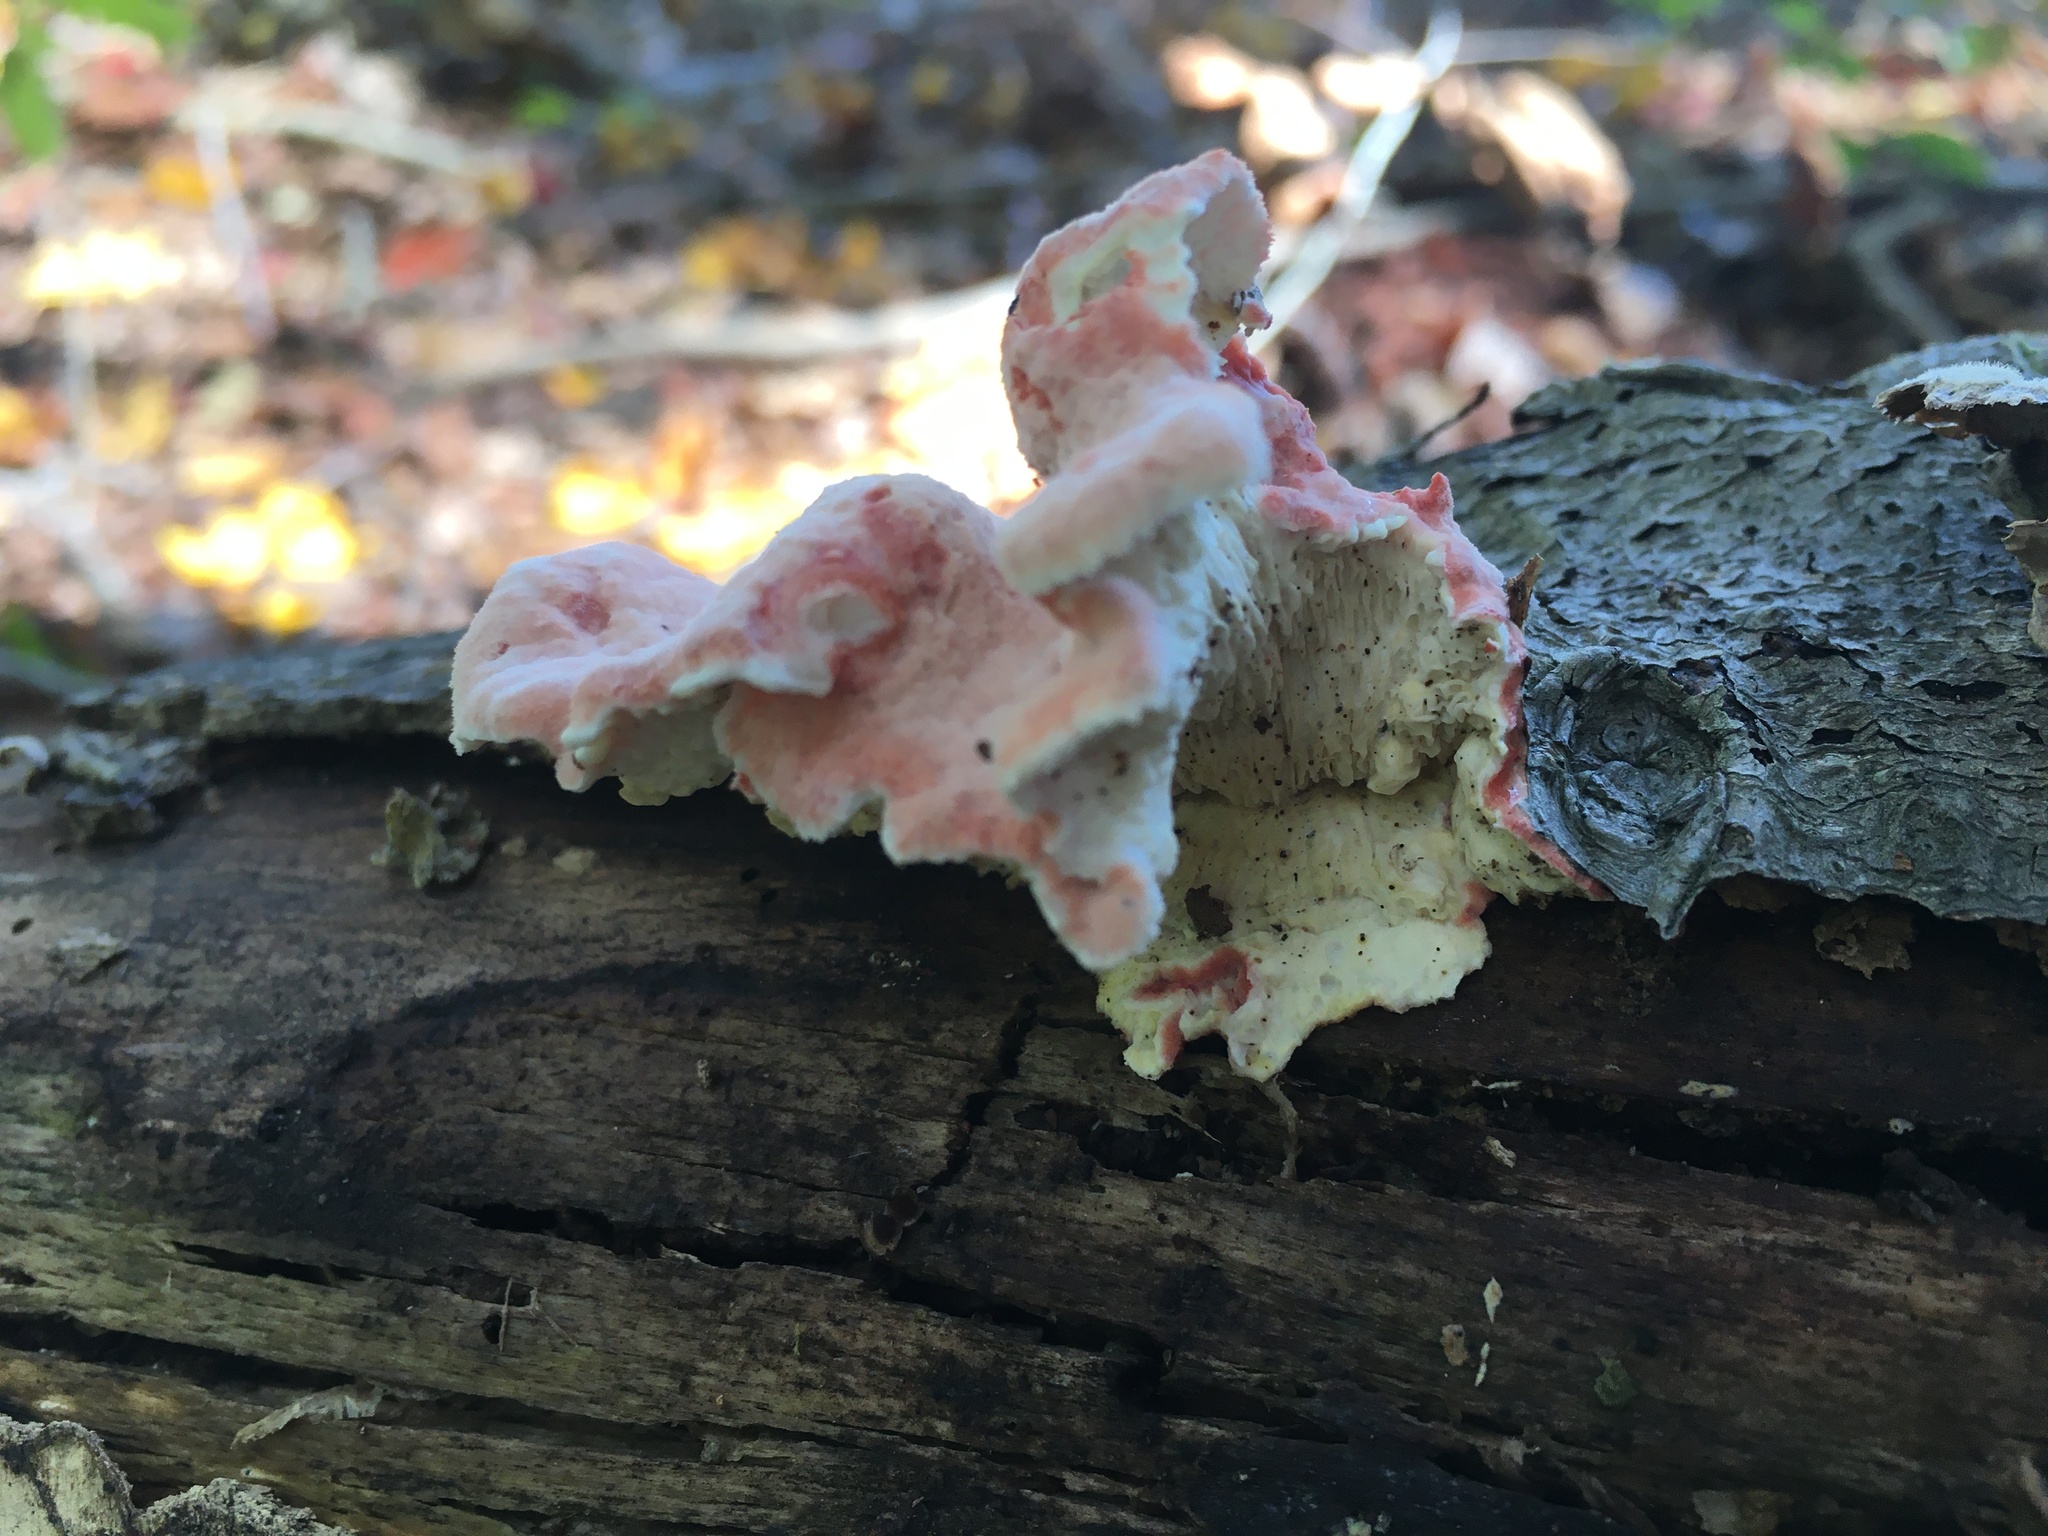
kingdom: Fungi
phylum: Basidiomycota
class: Agaricomycetes
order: Polyporales
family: Irpicaceae
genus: Byssomerulius
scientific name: Byssomerulius incarnatus
